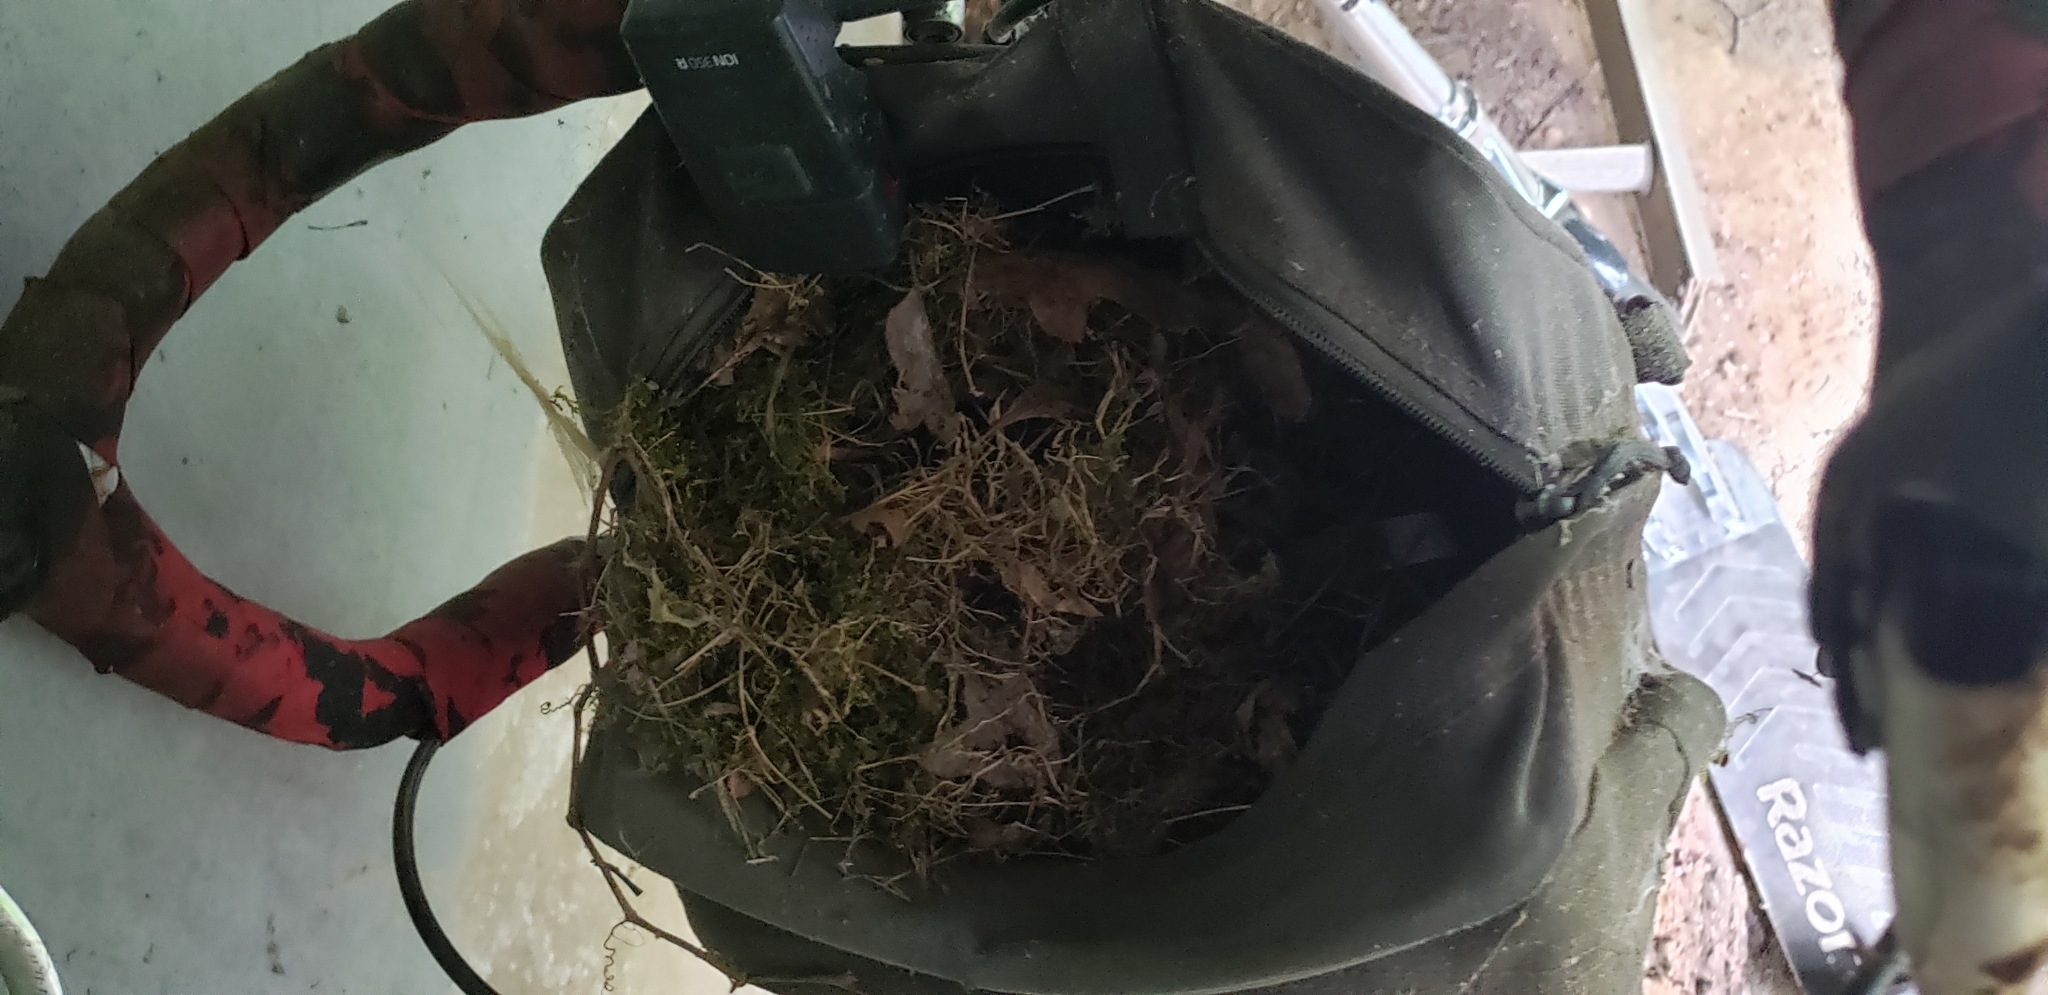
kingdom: Animalia
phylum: Chordata
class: Aves
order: Passeriformes
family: Troglodytidae
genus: Thryothorus
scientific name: Thryothorus ludovicianus
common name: Carolina wren
